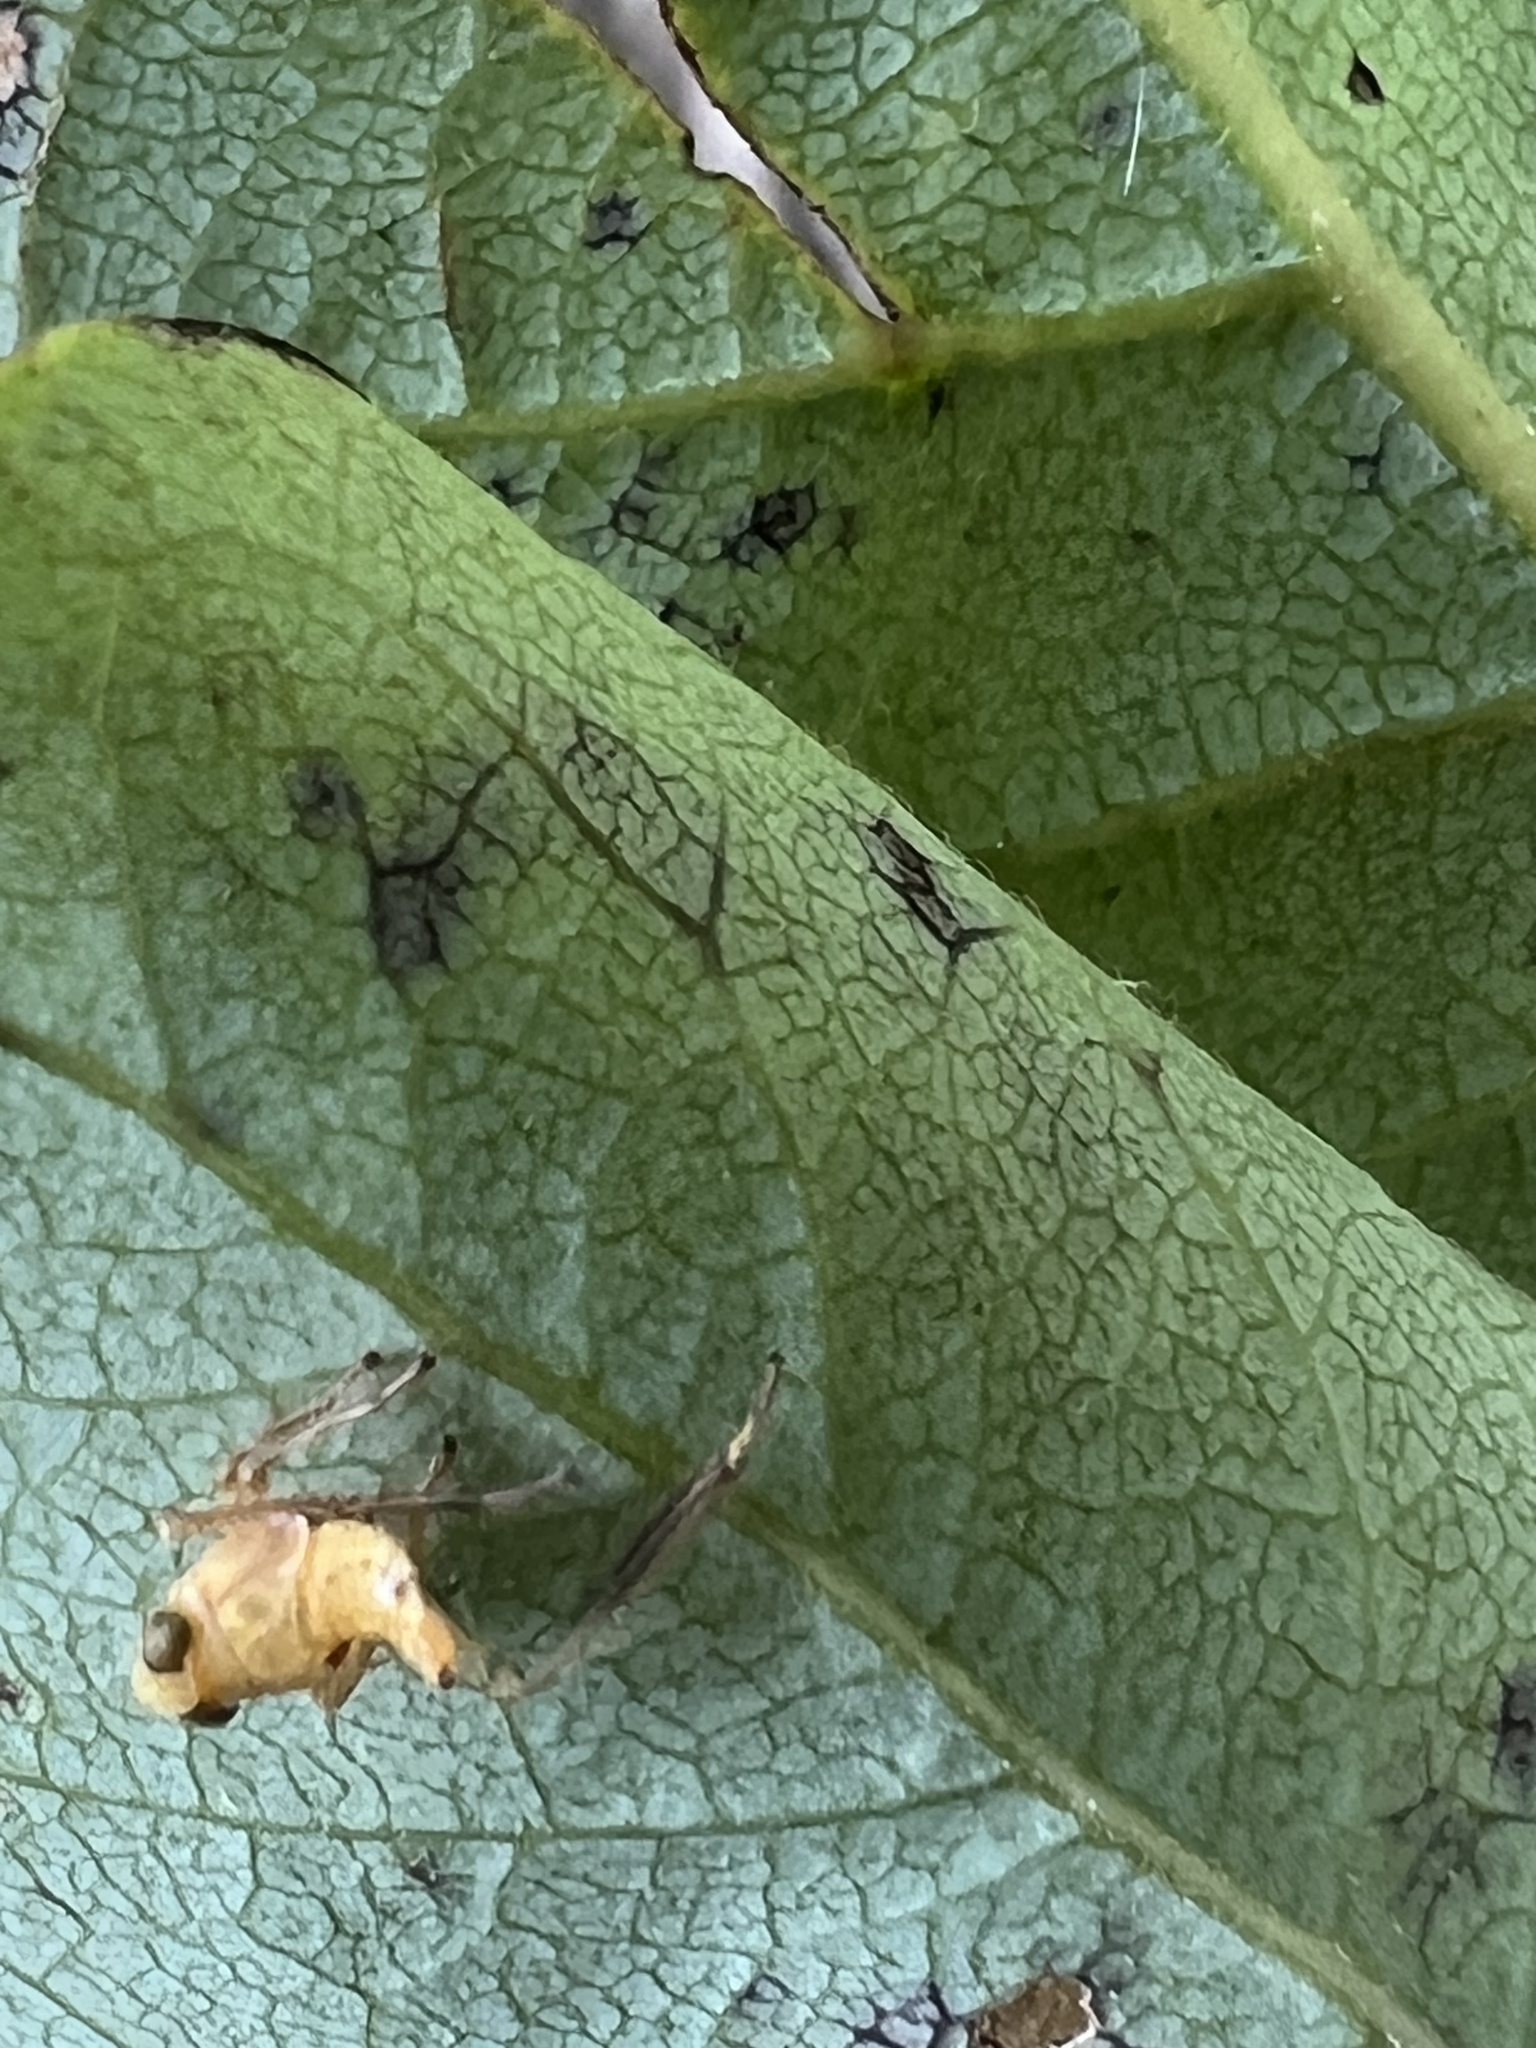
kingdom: Animalia
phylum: Arthropoda
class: Insecta
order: Hemiptera
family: Cicadellidae
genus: Jikradia
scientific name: Jikradia olitoria
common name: Coppery leafhopper
